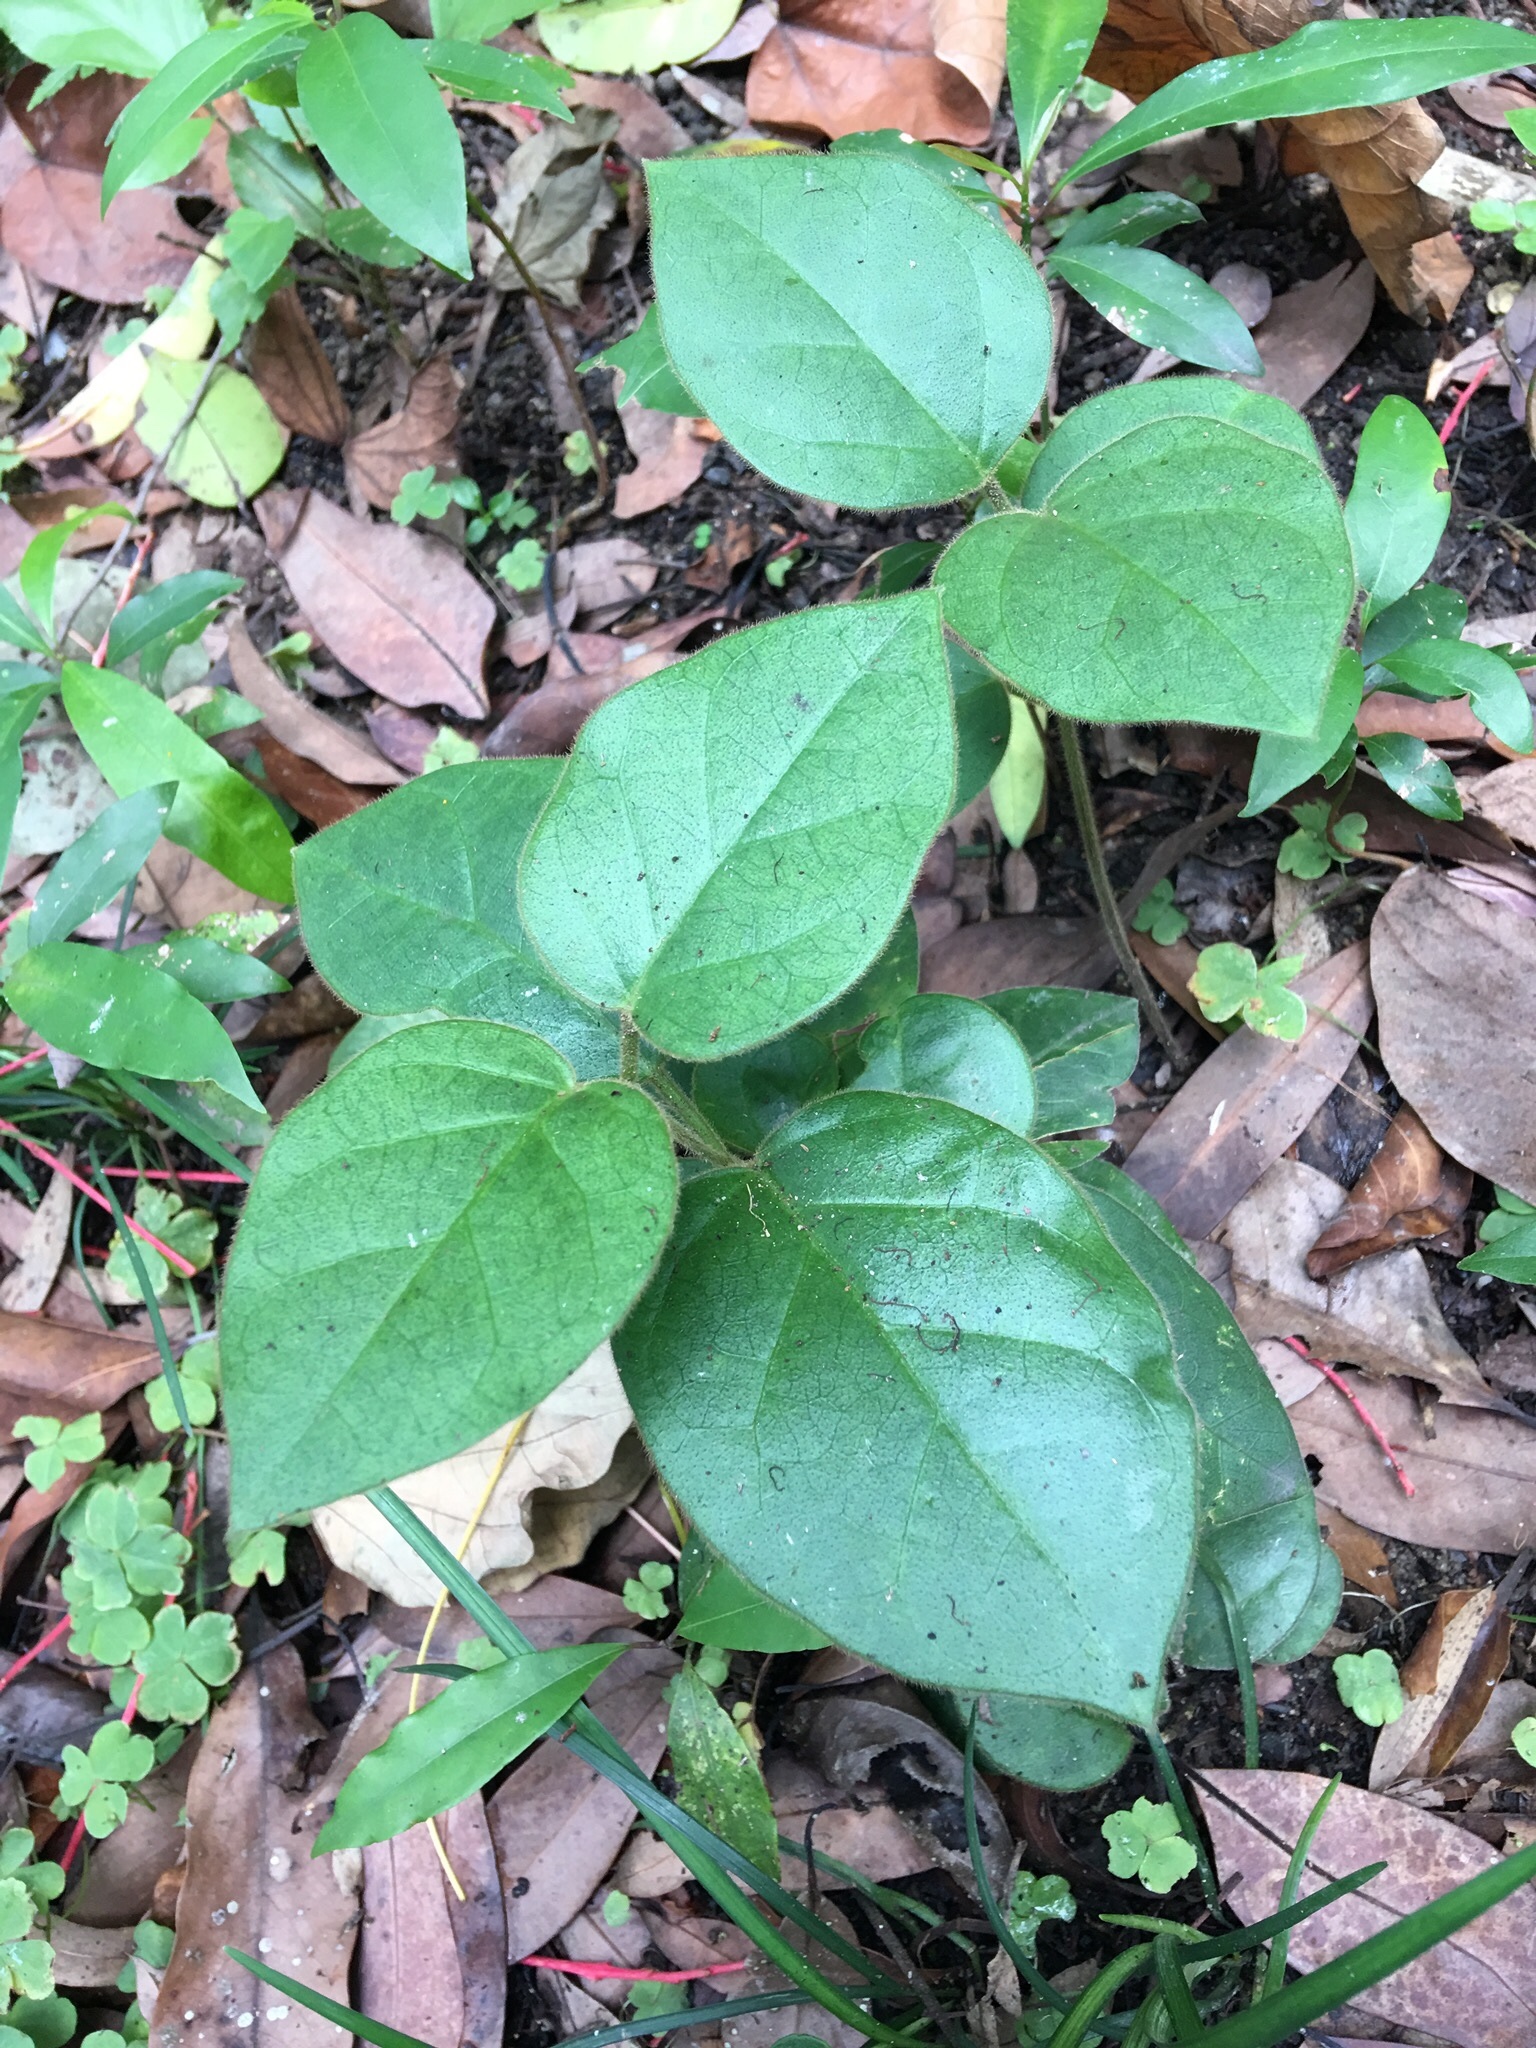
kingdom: Plantae
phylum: Tracheophyta
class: Magnoliopsida
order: Gentianales
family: Apocynaceae
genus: Vincetoxicum
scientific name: Vincetoxicum hirsutum
